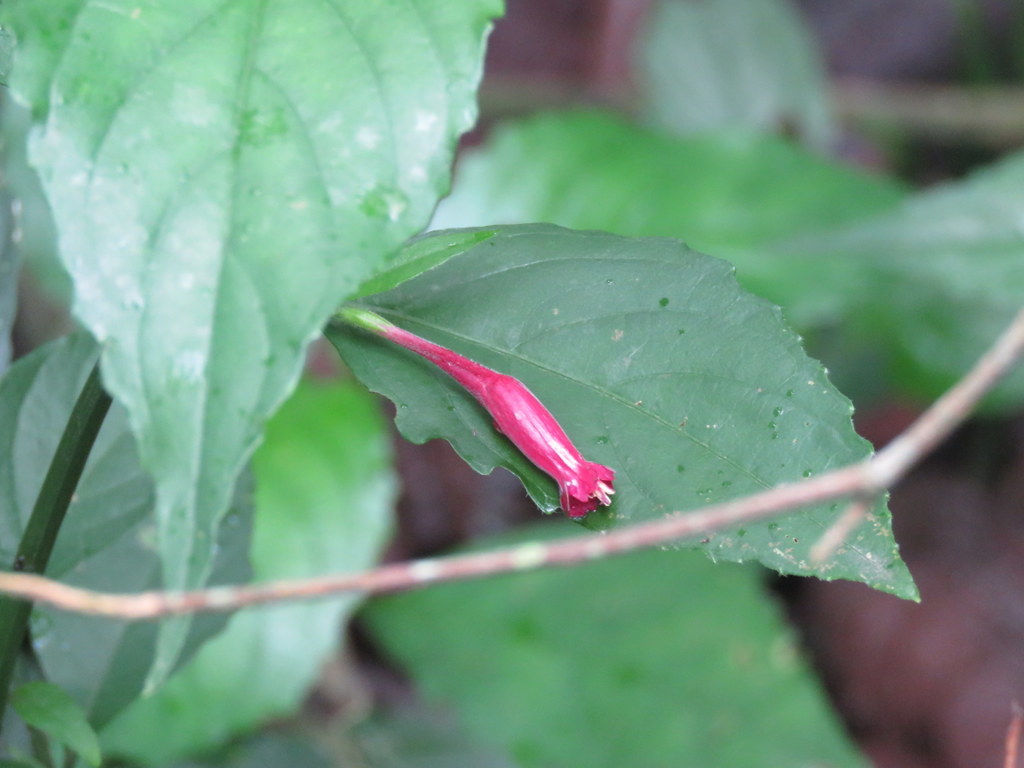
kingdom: Plantae
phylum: Tracheophyta
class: Magnoliopsida
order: Lamiales
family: Acanthaceae
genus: Ruellia
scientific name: Ruellia angustiflora
